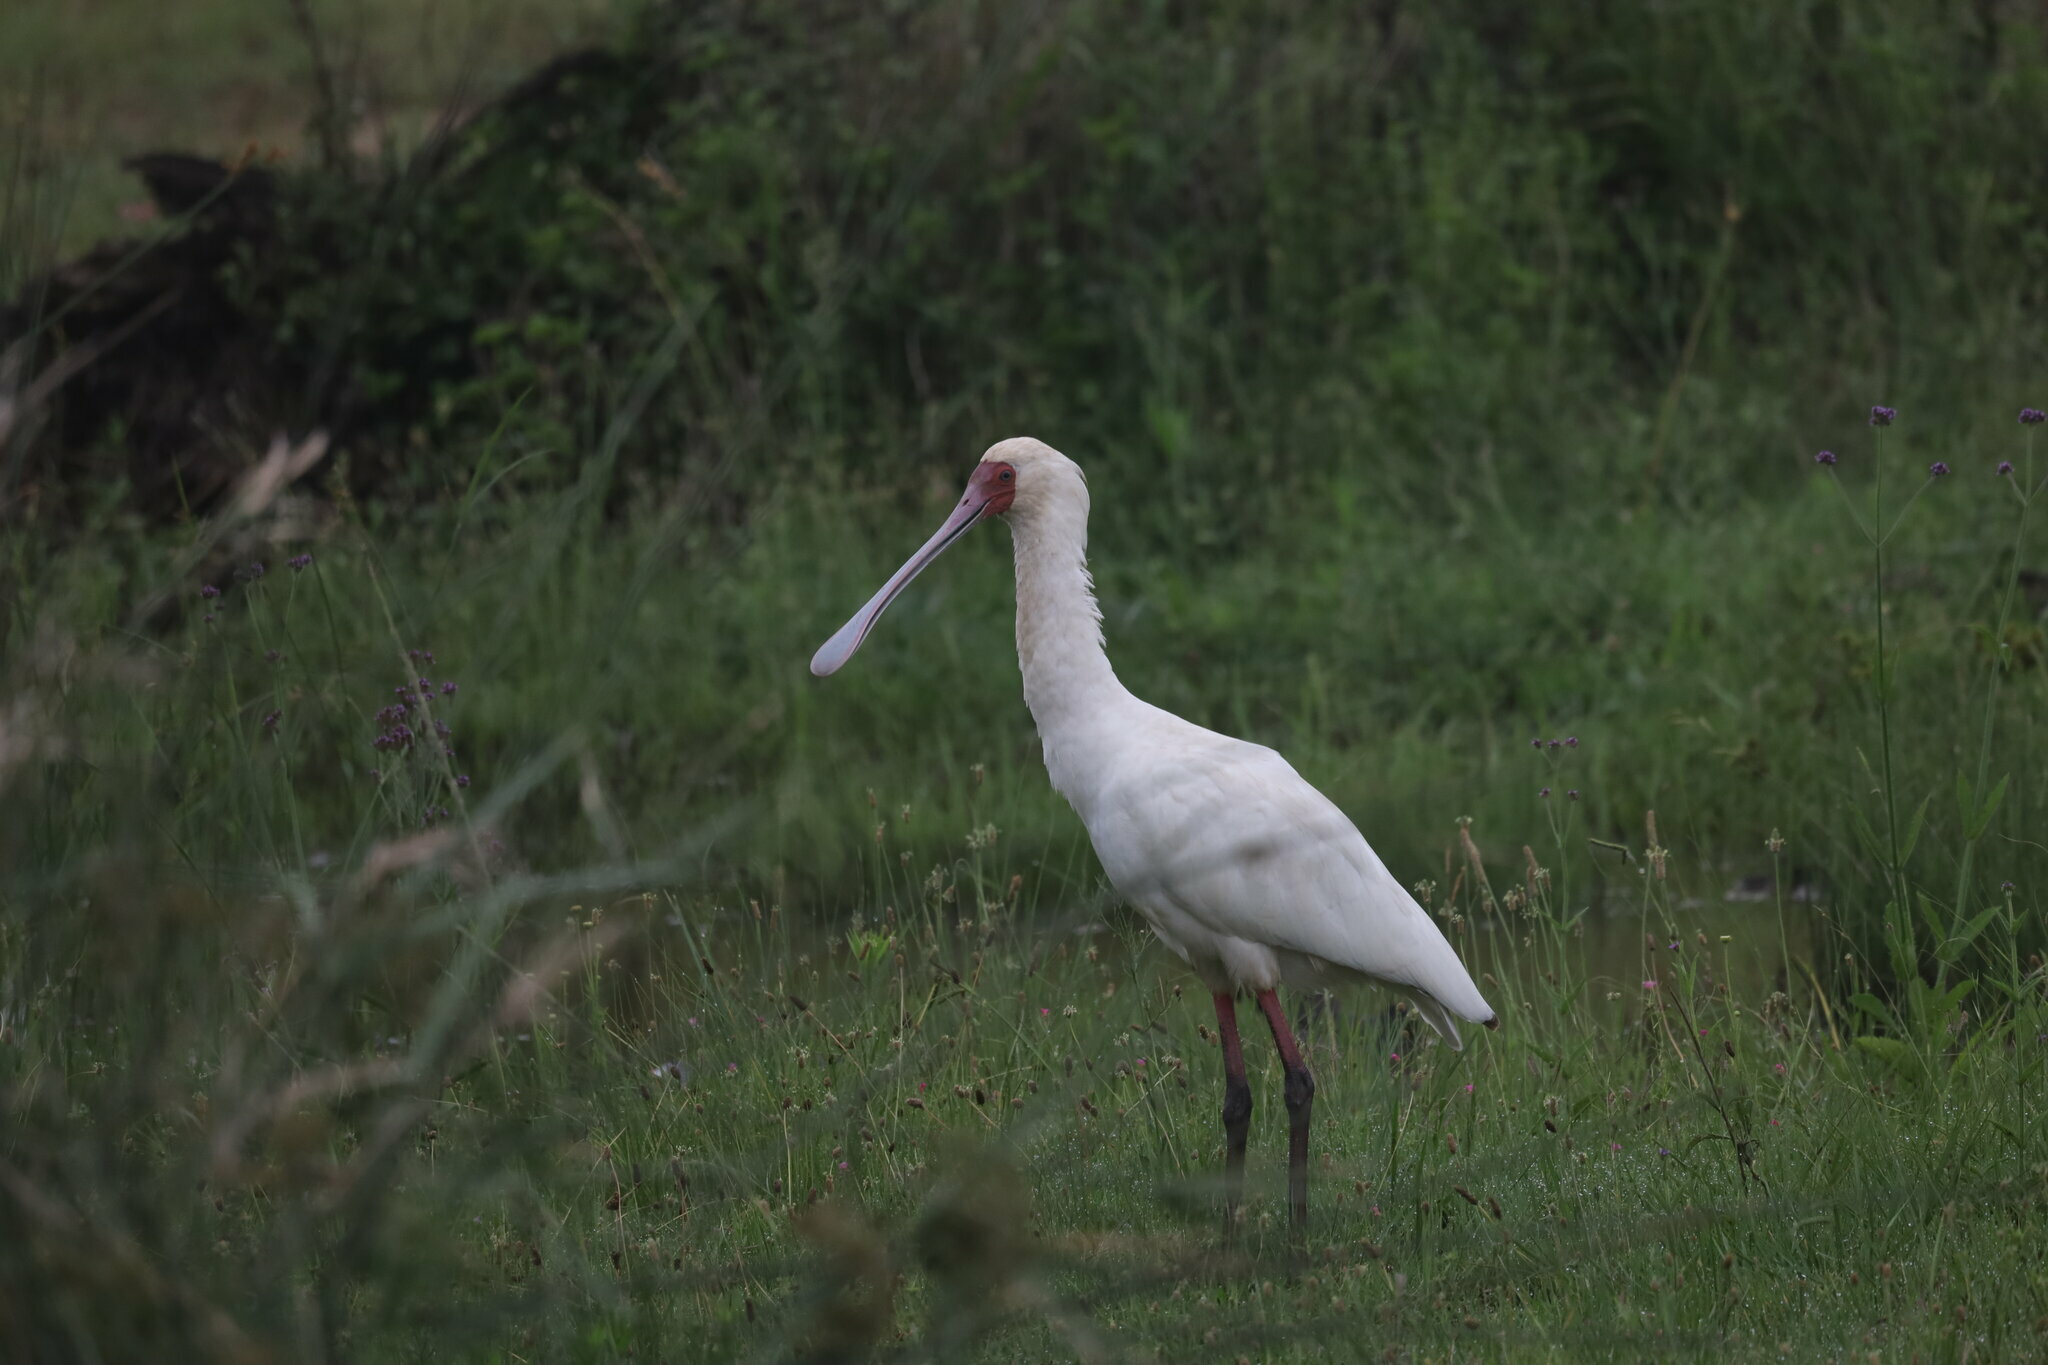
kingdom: Animalia
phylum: Chordata
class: Aves
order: Pelecaniformes
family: Threskiornithidae
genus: Platalea
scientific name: Platalea alba
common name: African spoonbill
